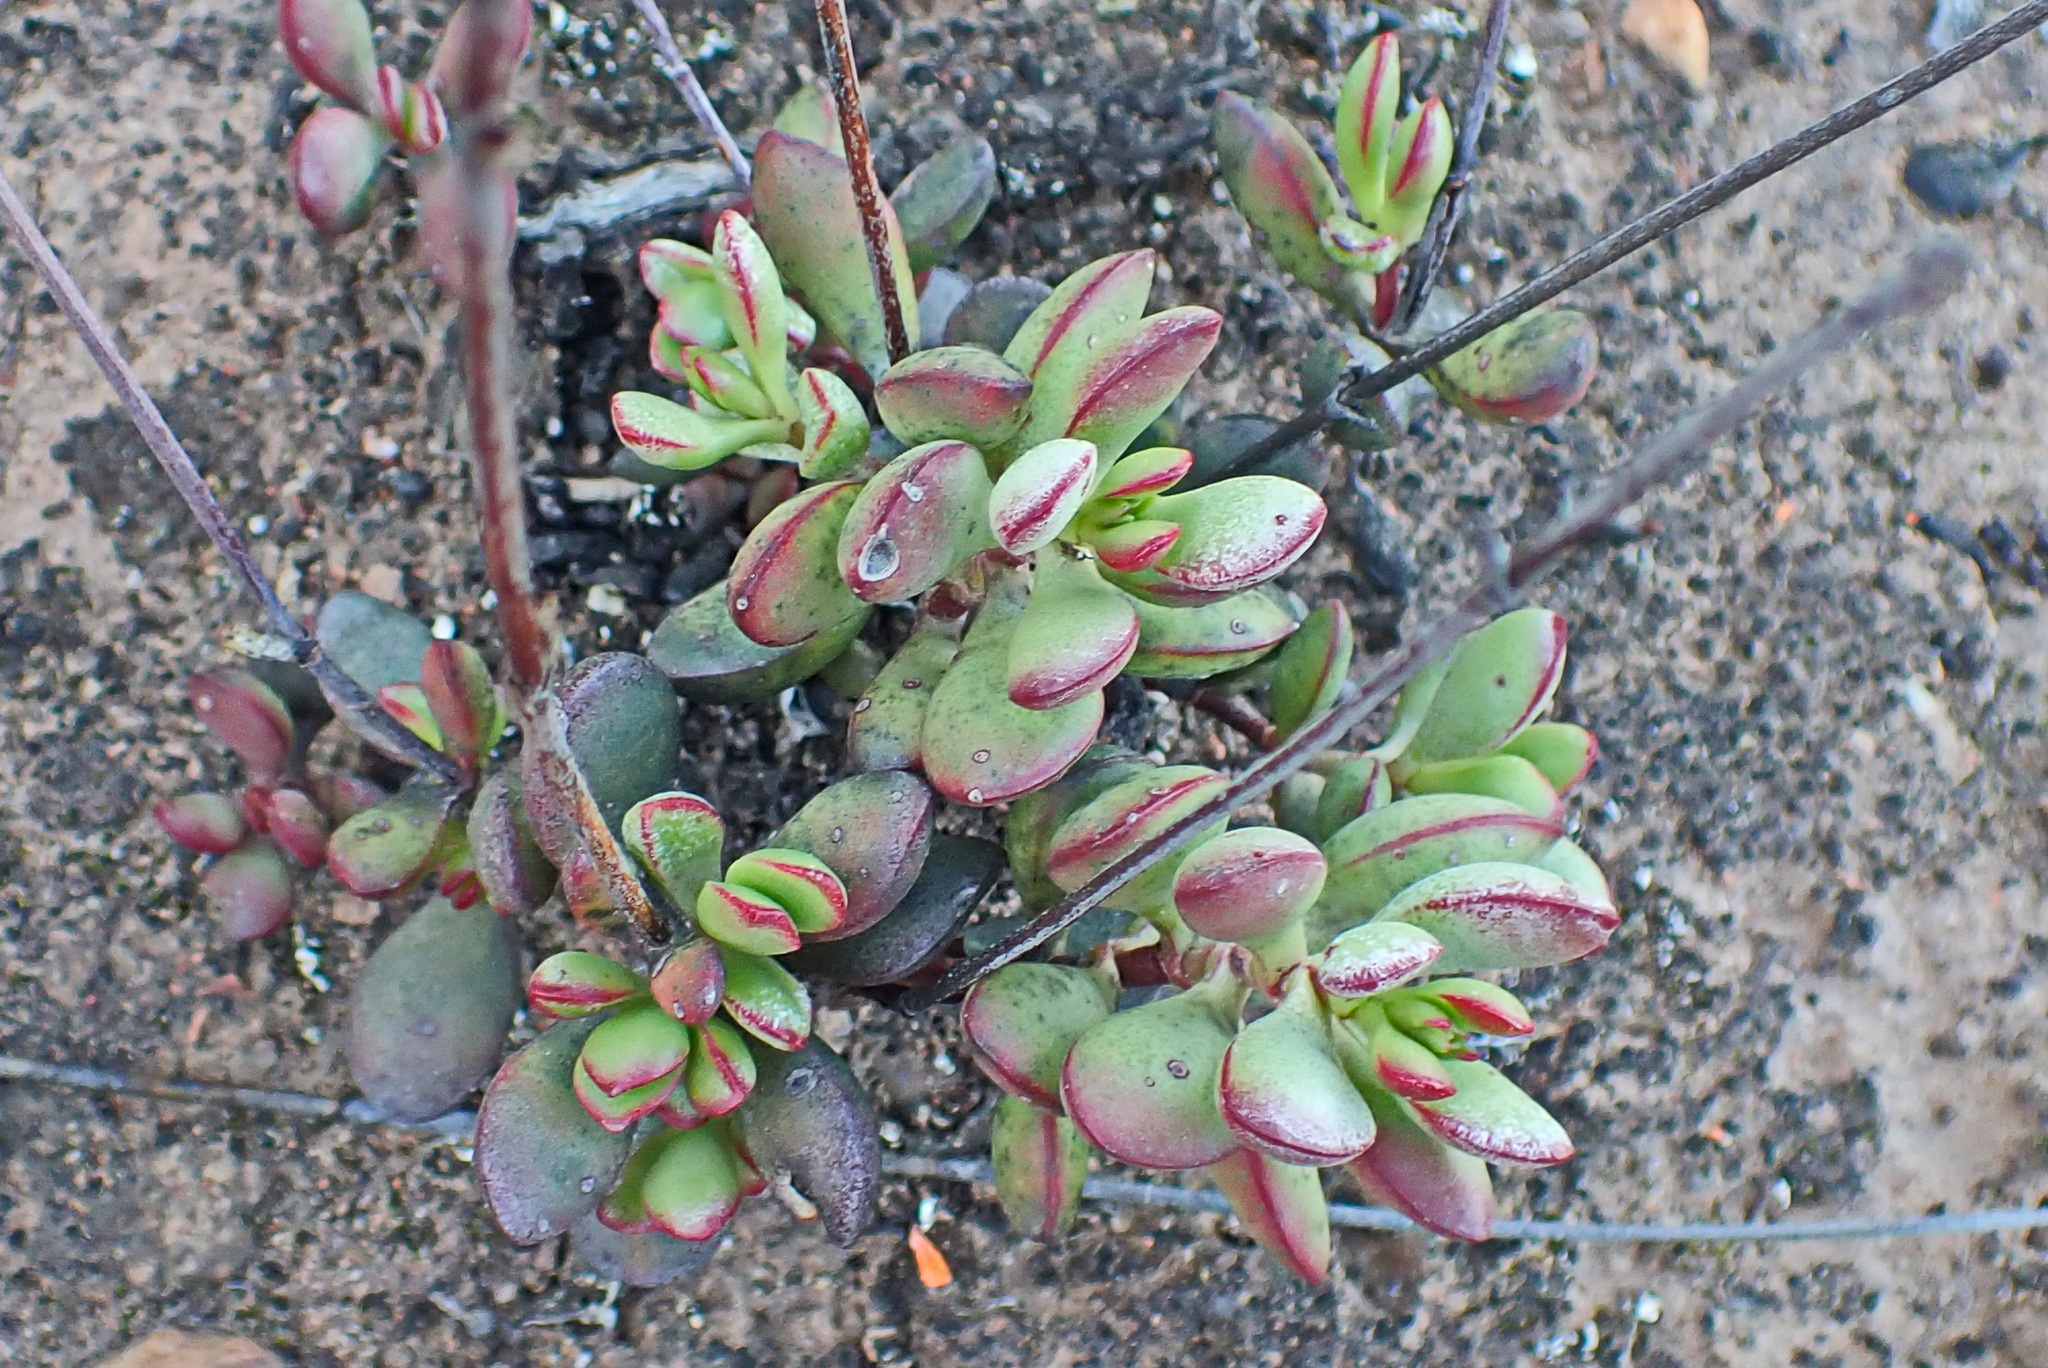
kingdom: Plantae
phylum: Tracheophyta
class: Magnoliopsida
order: Saxifragales
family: Crassulaceae
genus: Crassula
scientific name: Crassula atropurpurea
